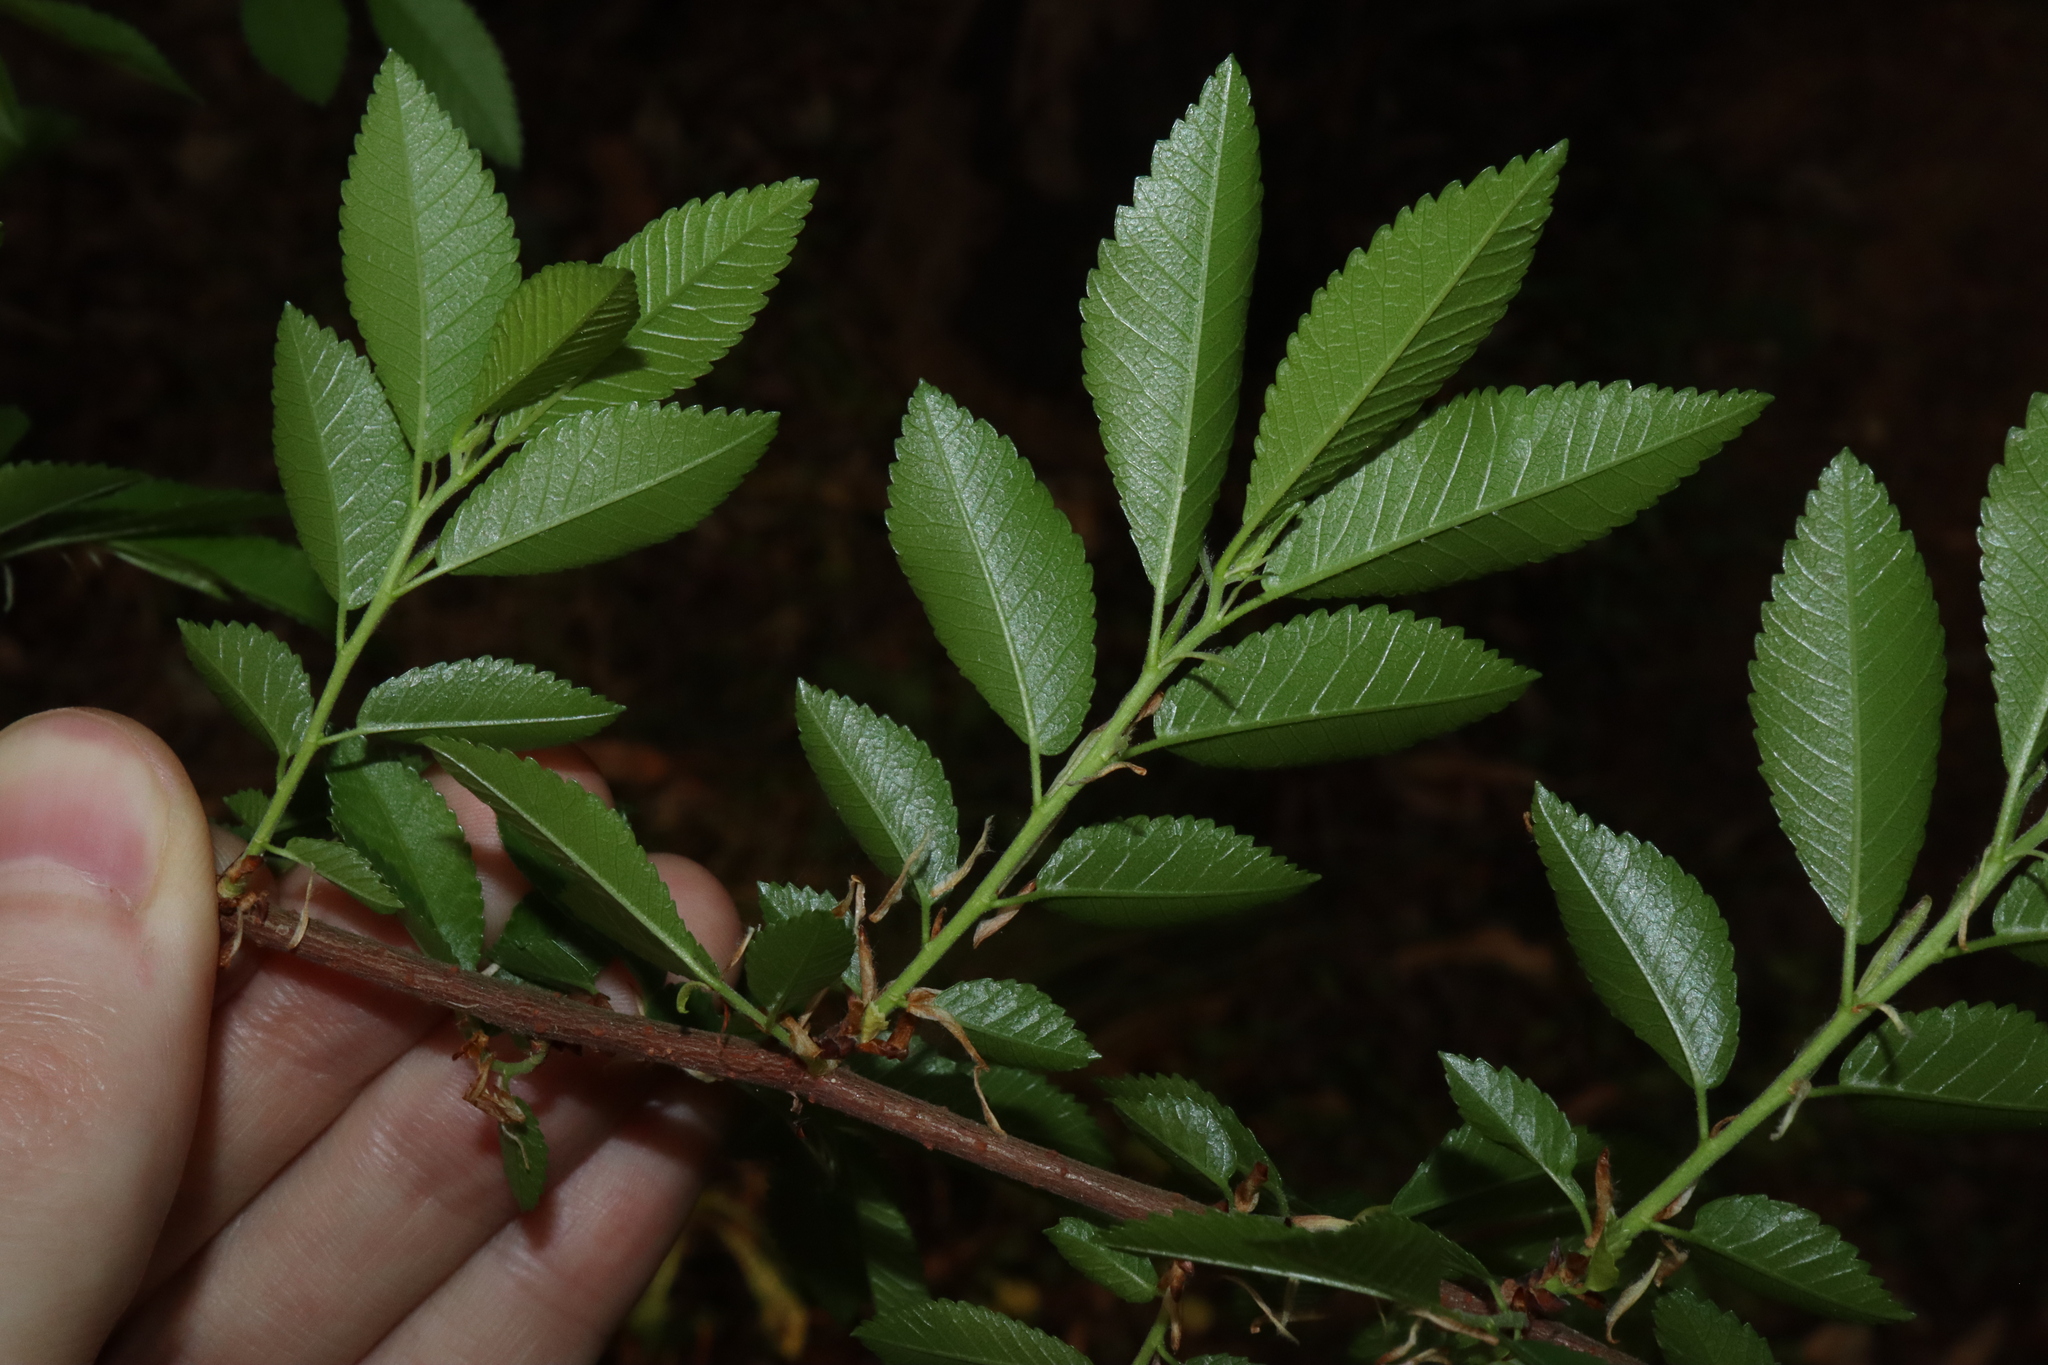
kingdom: Plantae
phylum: Tracheophyta
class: Magnoliopsida
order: Rosales
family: Ulmaceae
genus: Ulmus
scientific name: Ulmus parvifolia
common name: Chinese elm
